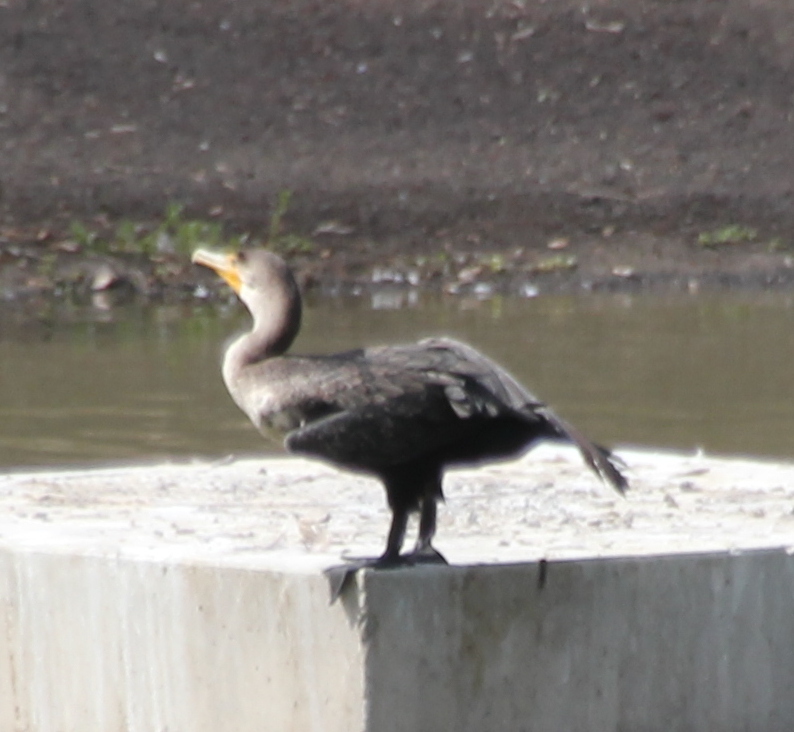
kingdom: Animalia
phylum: Chordata
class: Aves
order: Suliformes
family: Phalacrocoracidae
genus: Phalacrocorax
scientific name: Phalacrocorax auritus
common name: Double-crested cormorant
